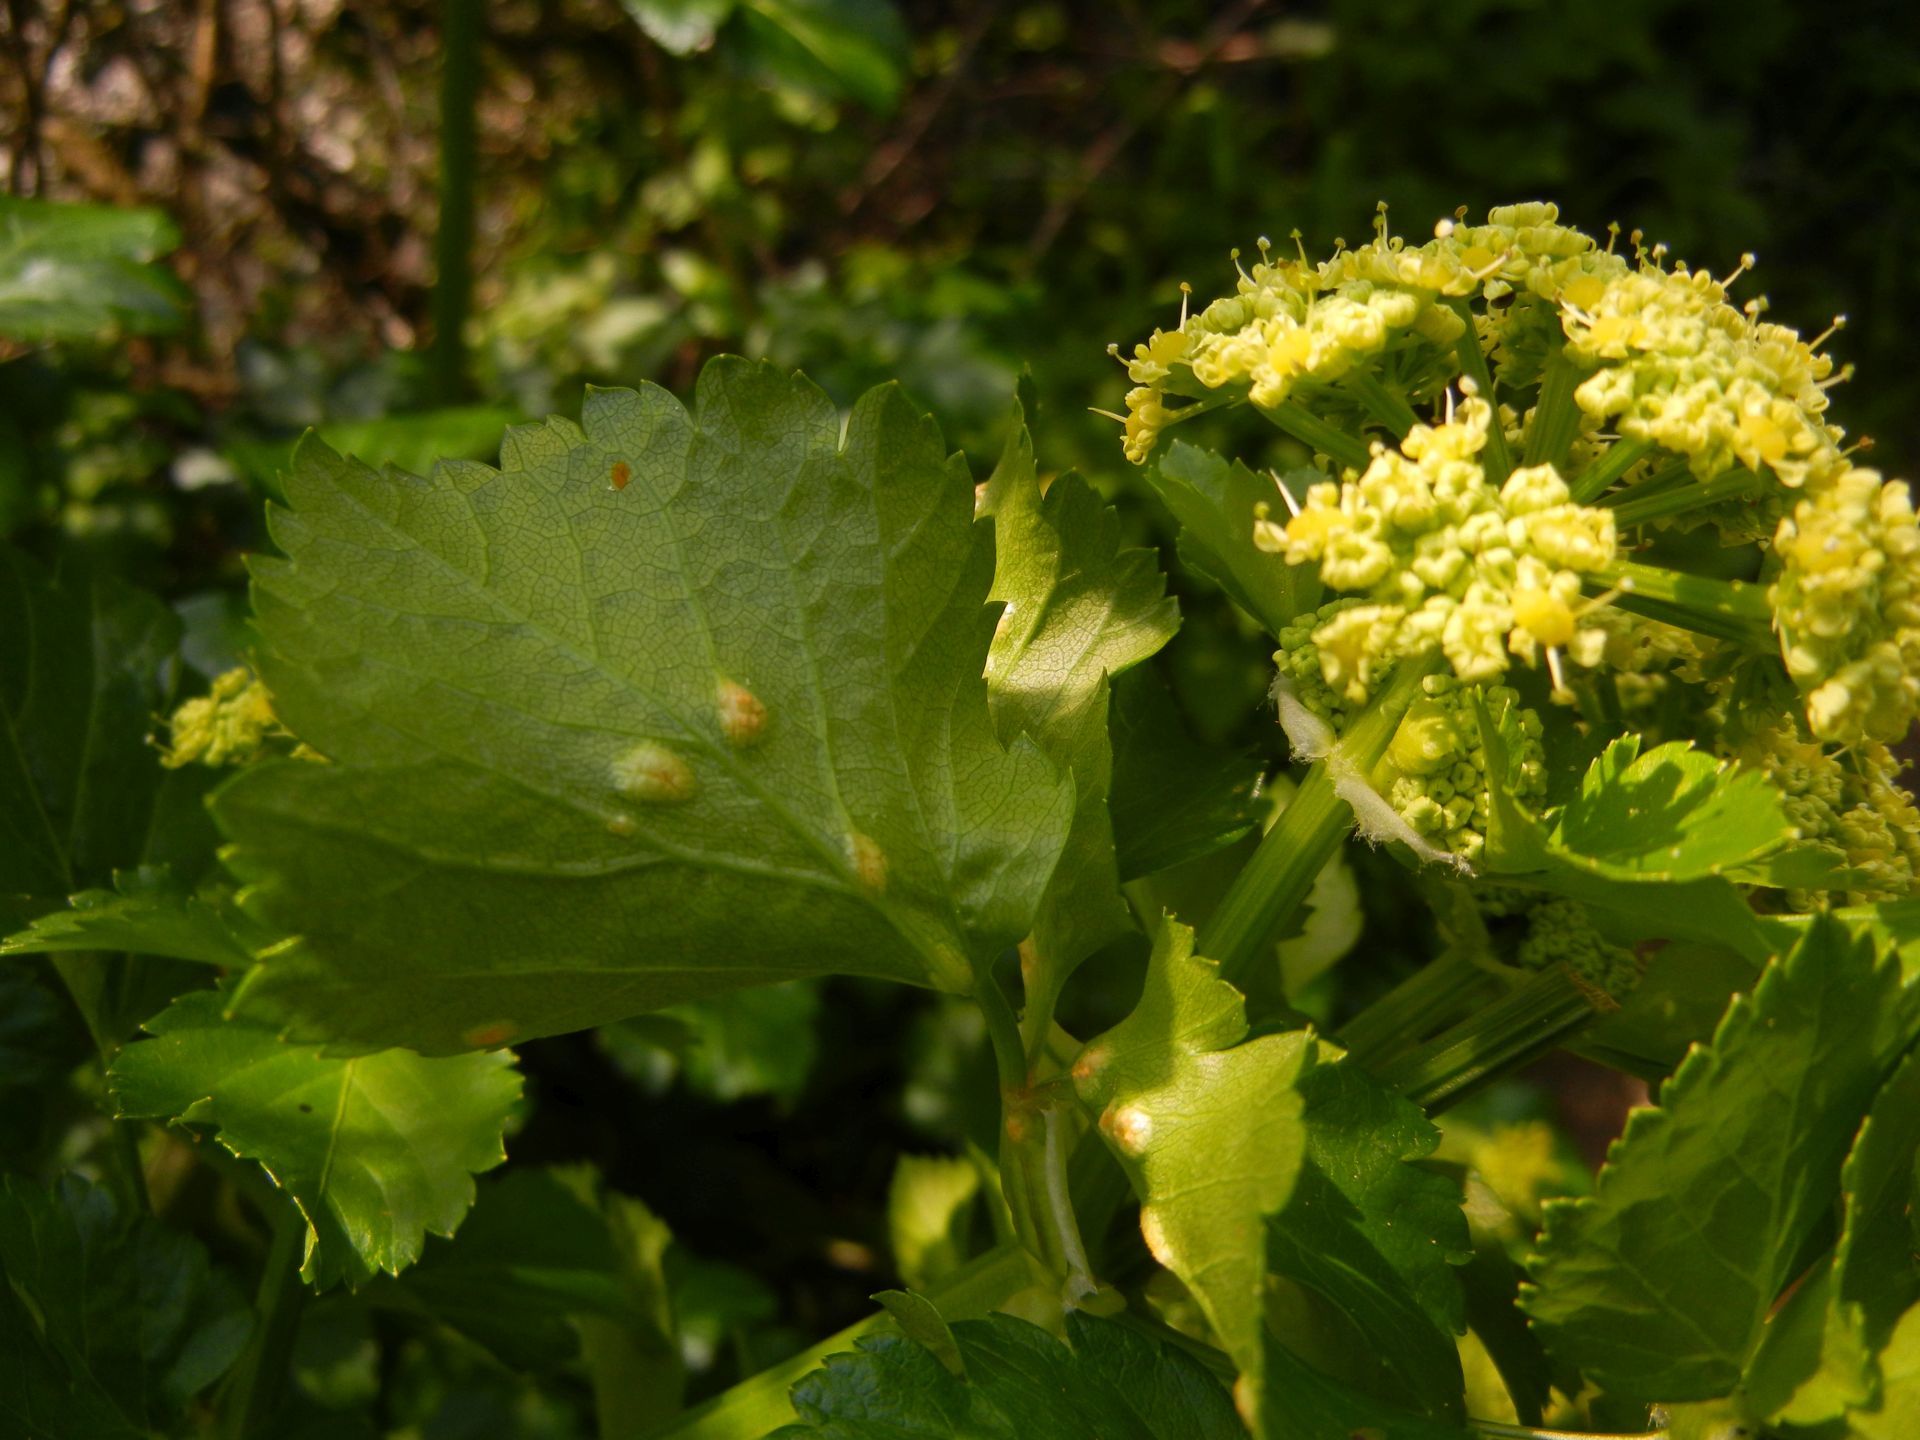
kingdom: Plantae
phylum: Tracheophyta
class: Magnoliopsida
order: Apiales
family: Apiaceae
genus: Smyrnium
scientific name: Smyrnium olusatrum
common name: Alexanders
